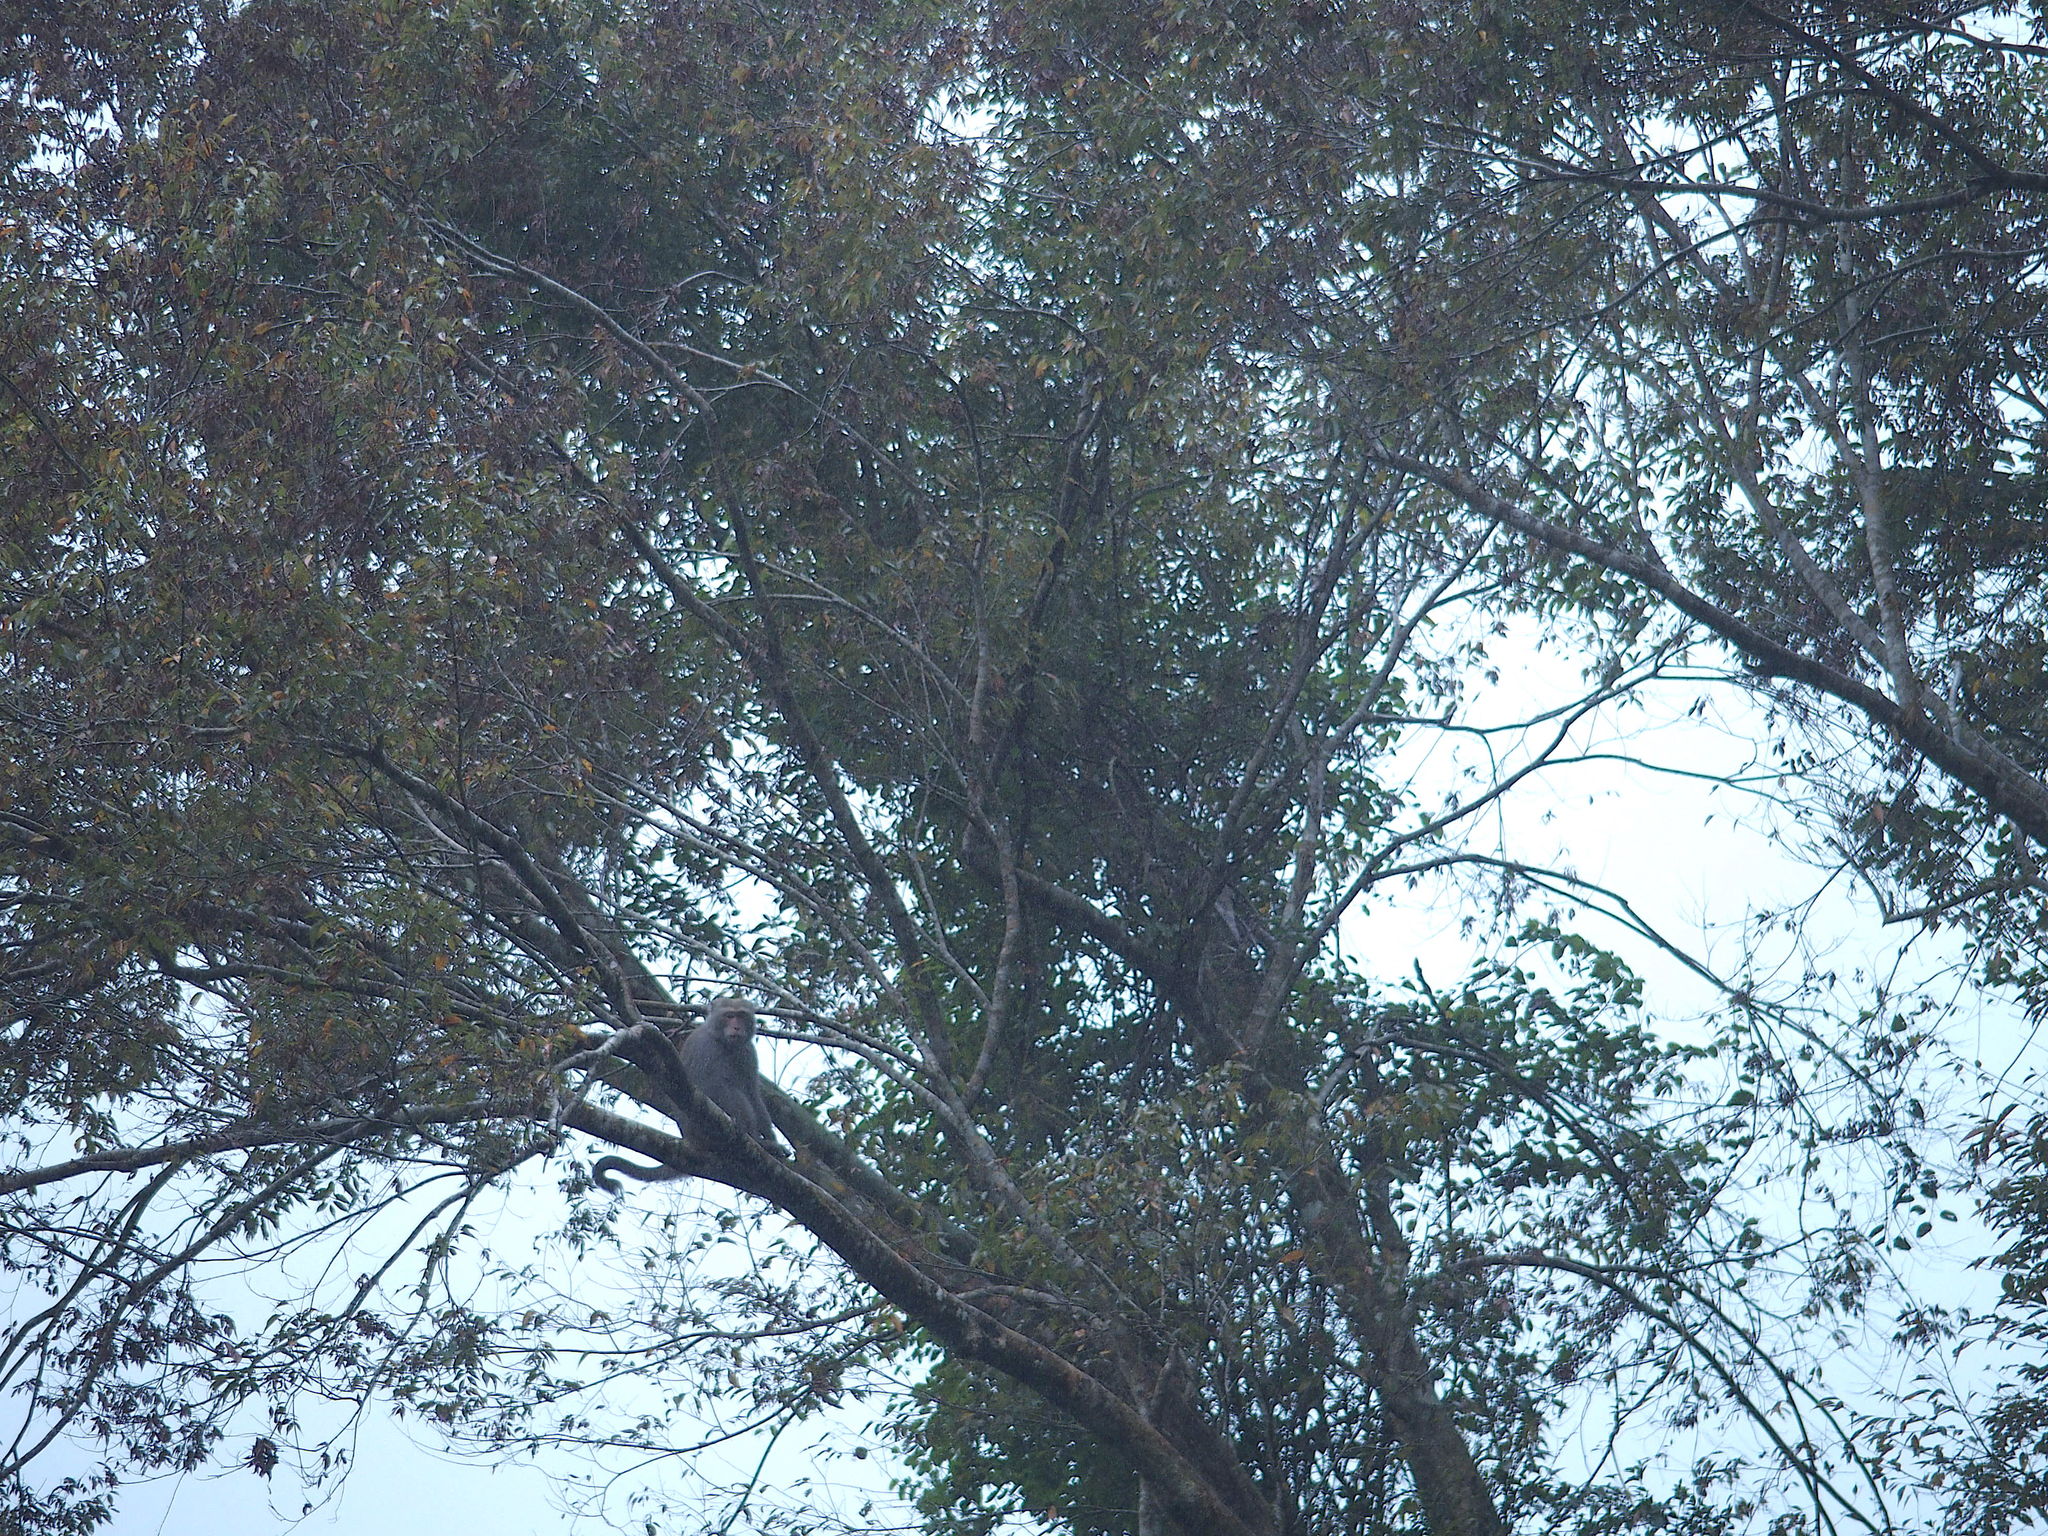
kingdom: Animalia
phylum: Chordata
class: Mammalia
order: Primates
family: Cercopithecidae
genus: Macaca
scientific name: Macaca cyclopis
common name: Formosan rock macaque
